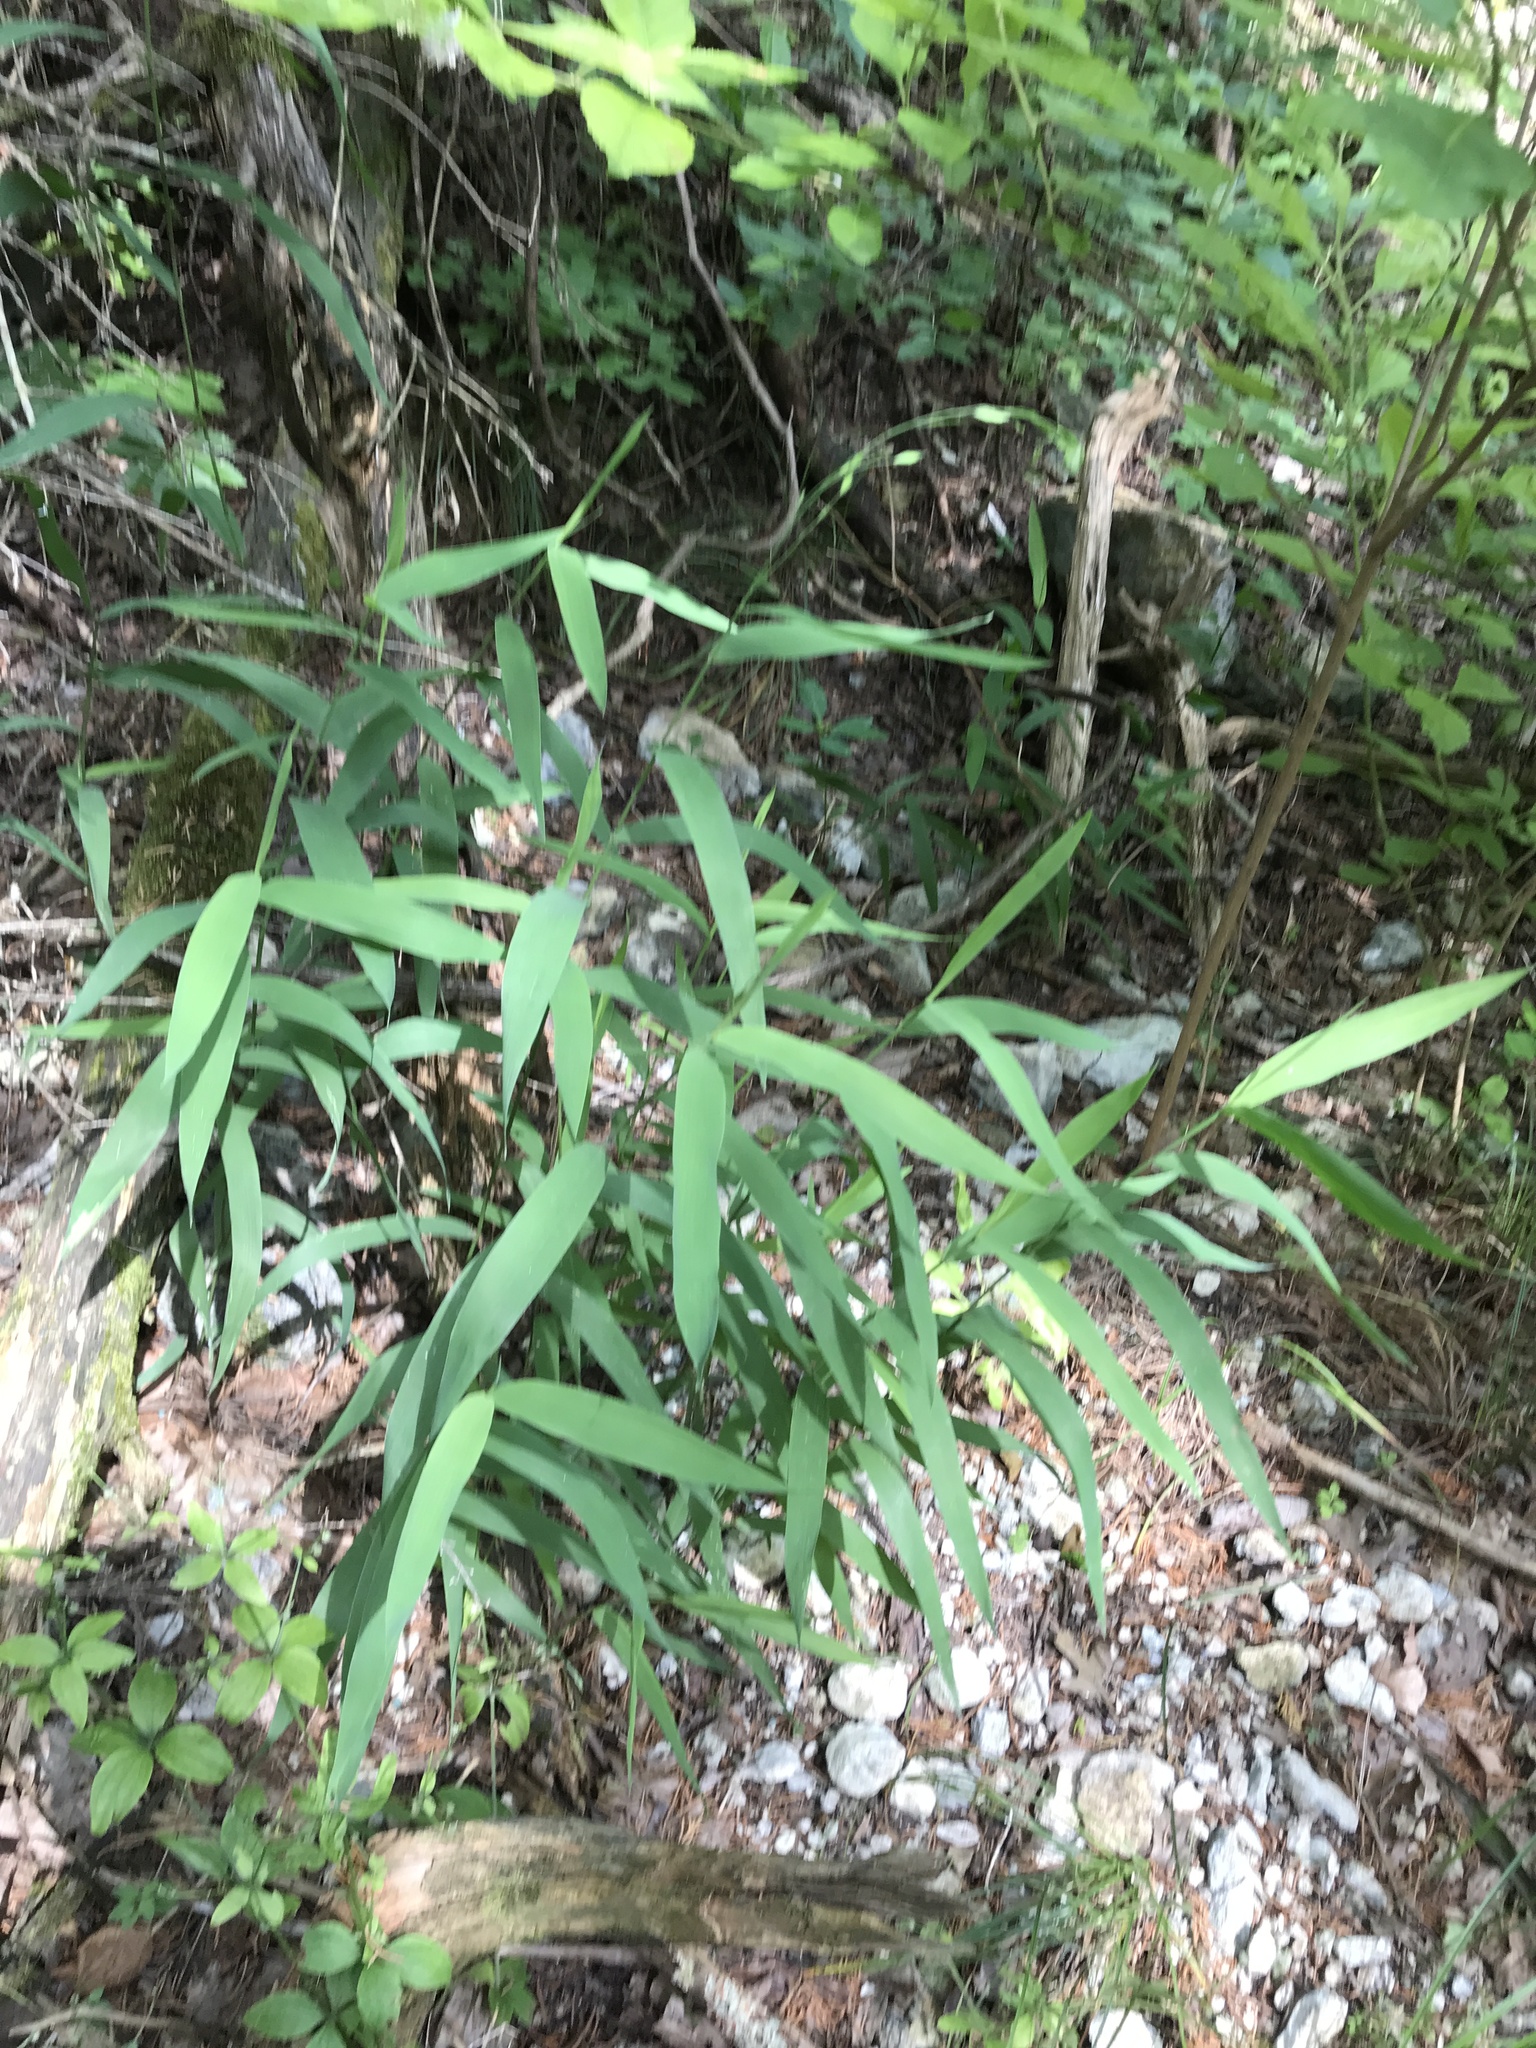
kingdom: Plantae
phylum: Tracheophyta
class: Liliopsida
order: Poales
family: Poaceae
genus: Chasmanthium
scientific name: Chasmanthium latifolium
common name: Broad-leaved chasmanthium
